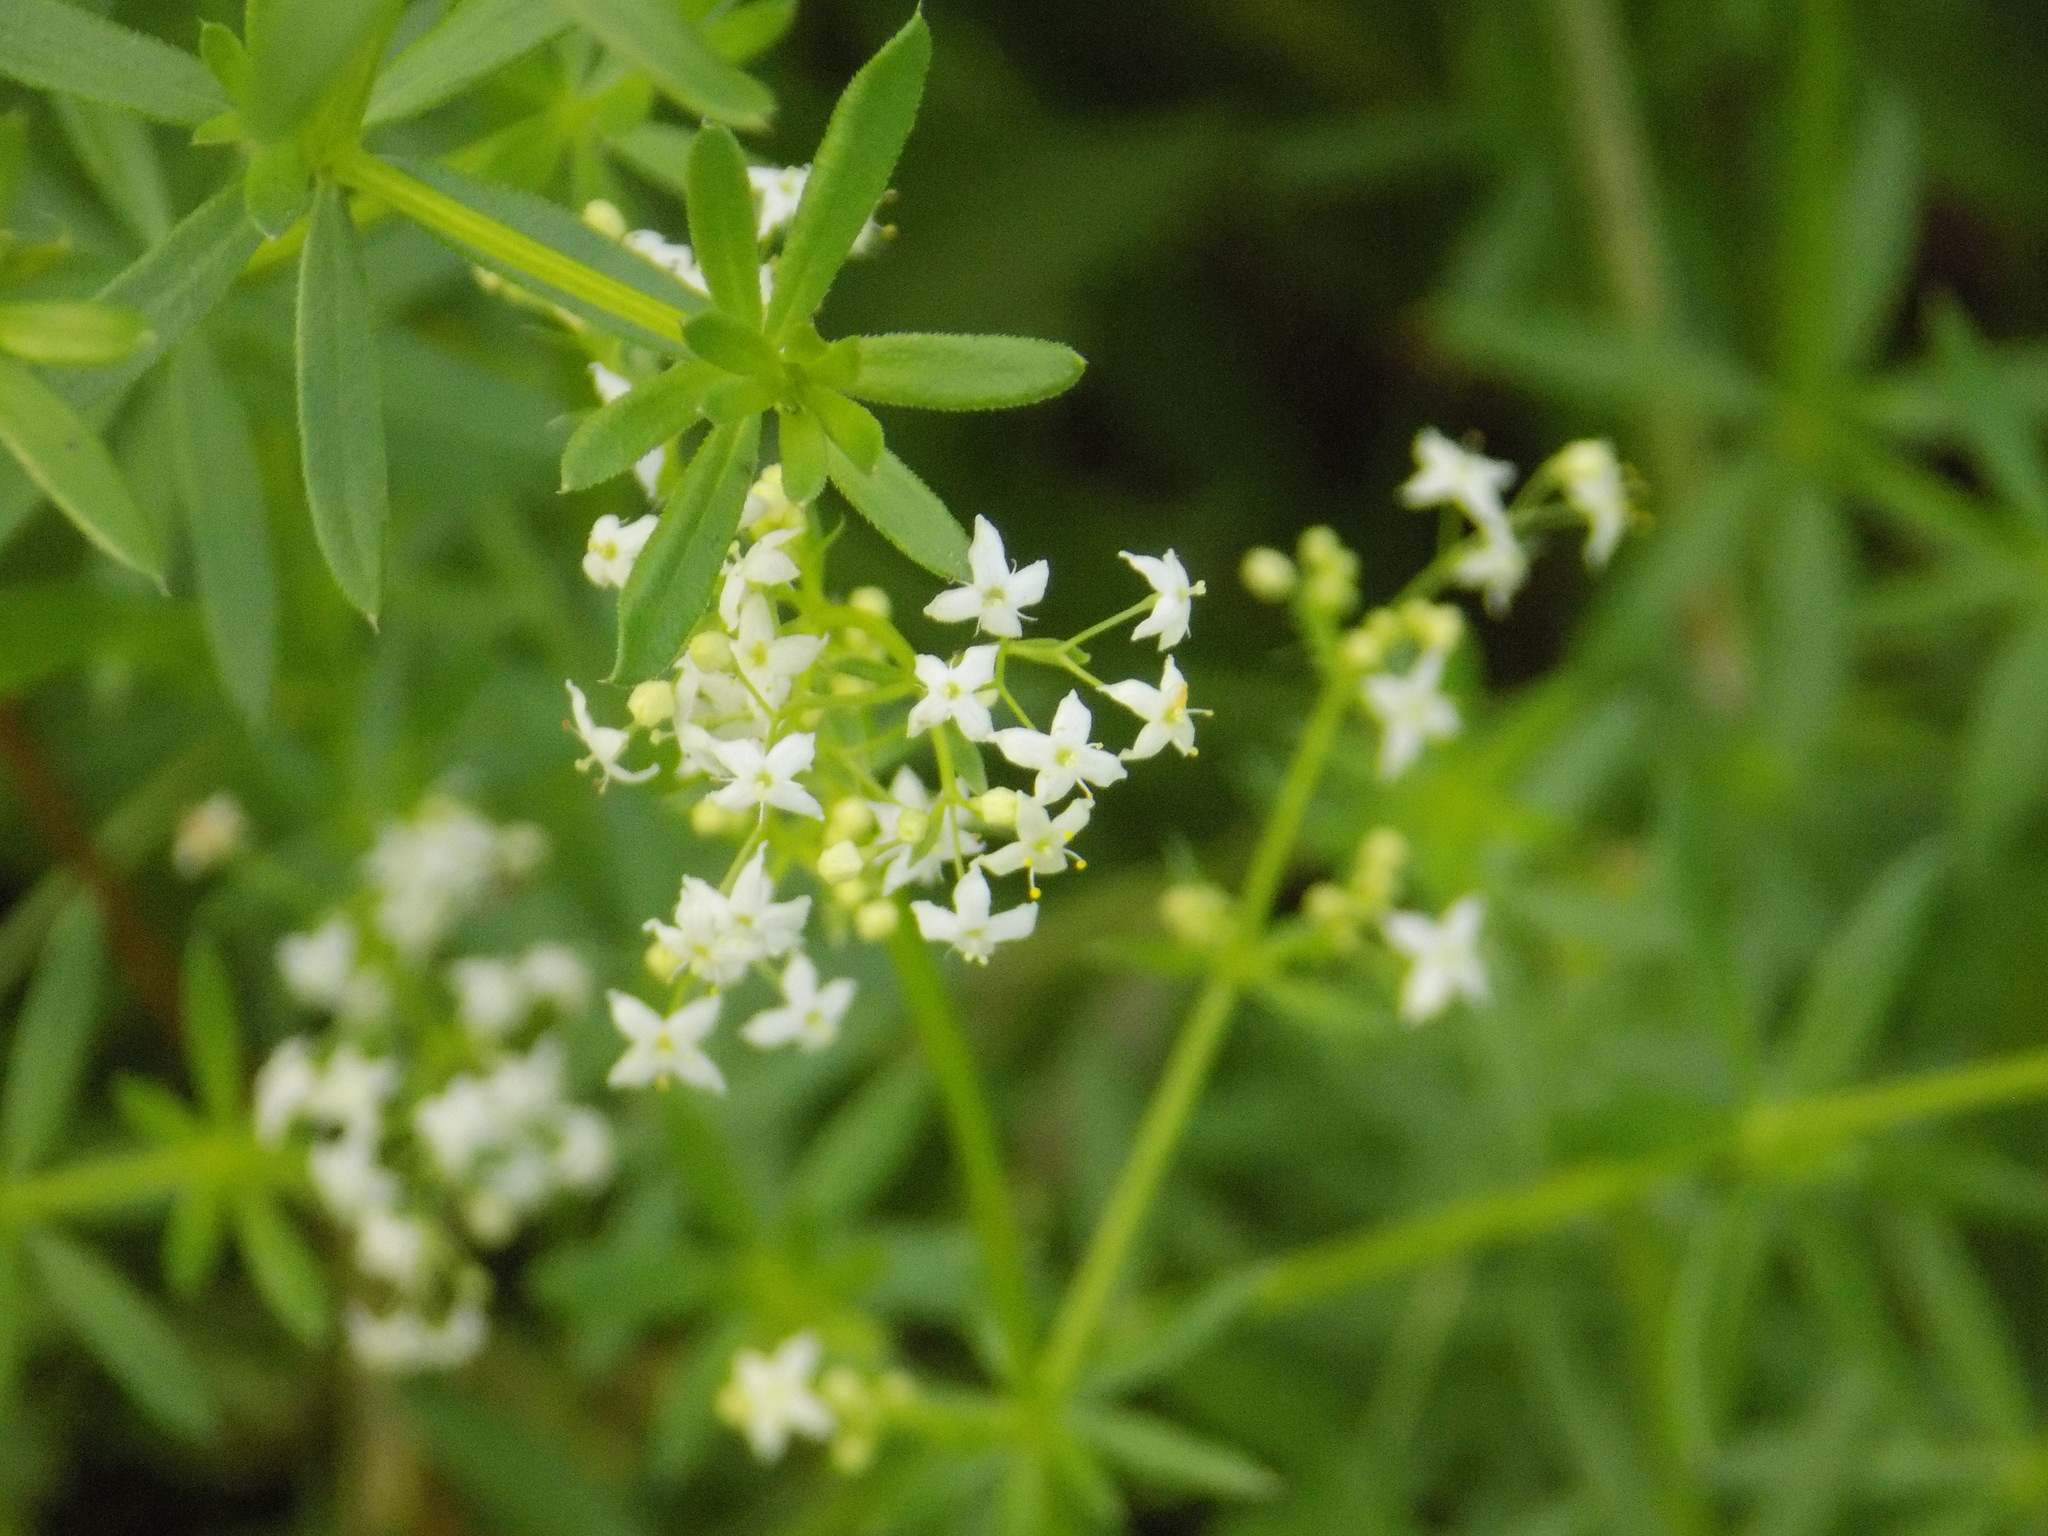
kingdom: Plantae
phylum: Tracheophyta
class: Magnoliopsida
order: Gentianales
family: Rubiaceae
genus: Galium
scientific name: Galium mollugo
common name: Hedge bedstraw
